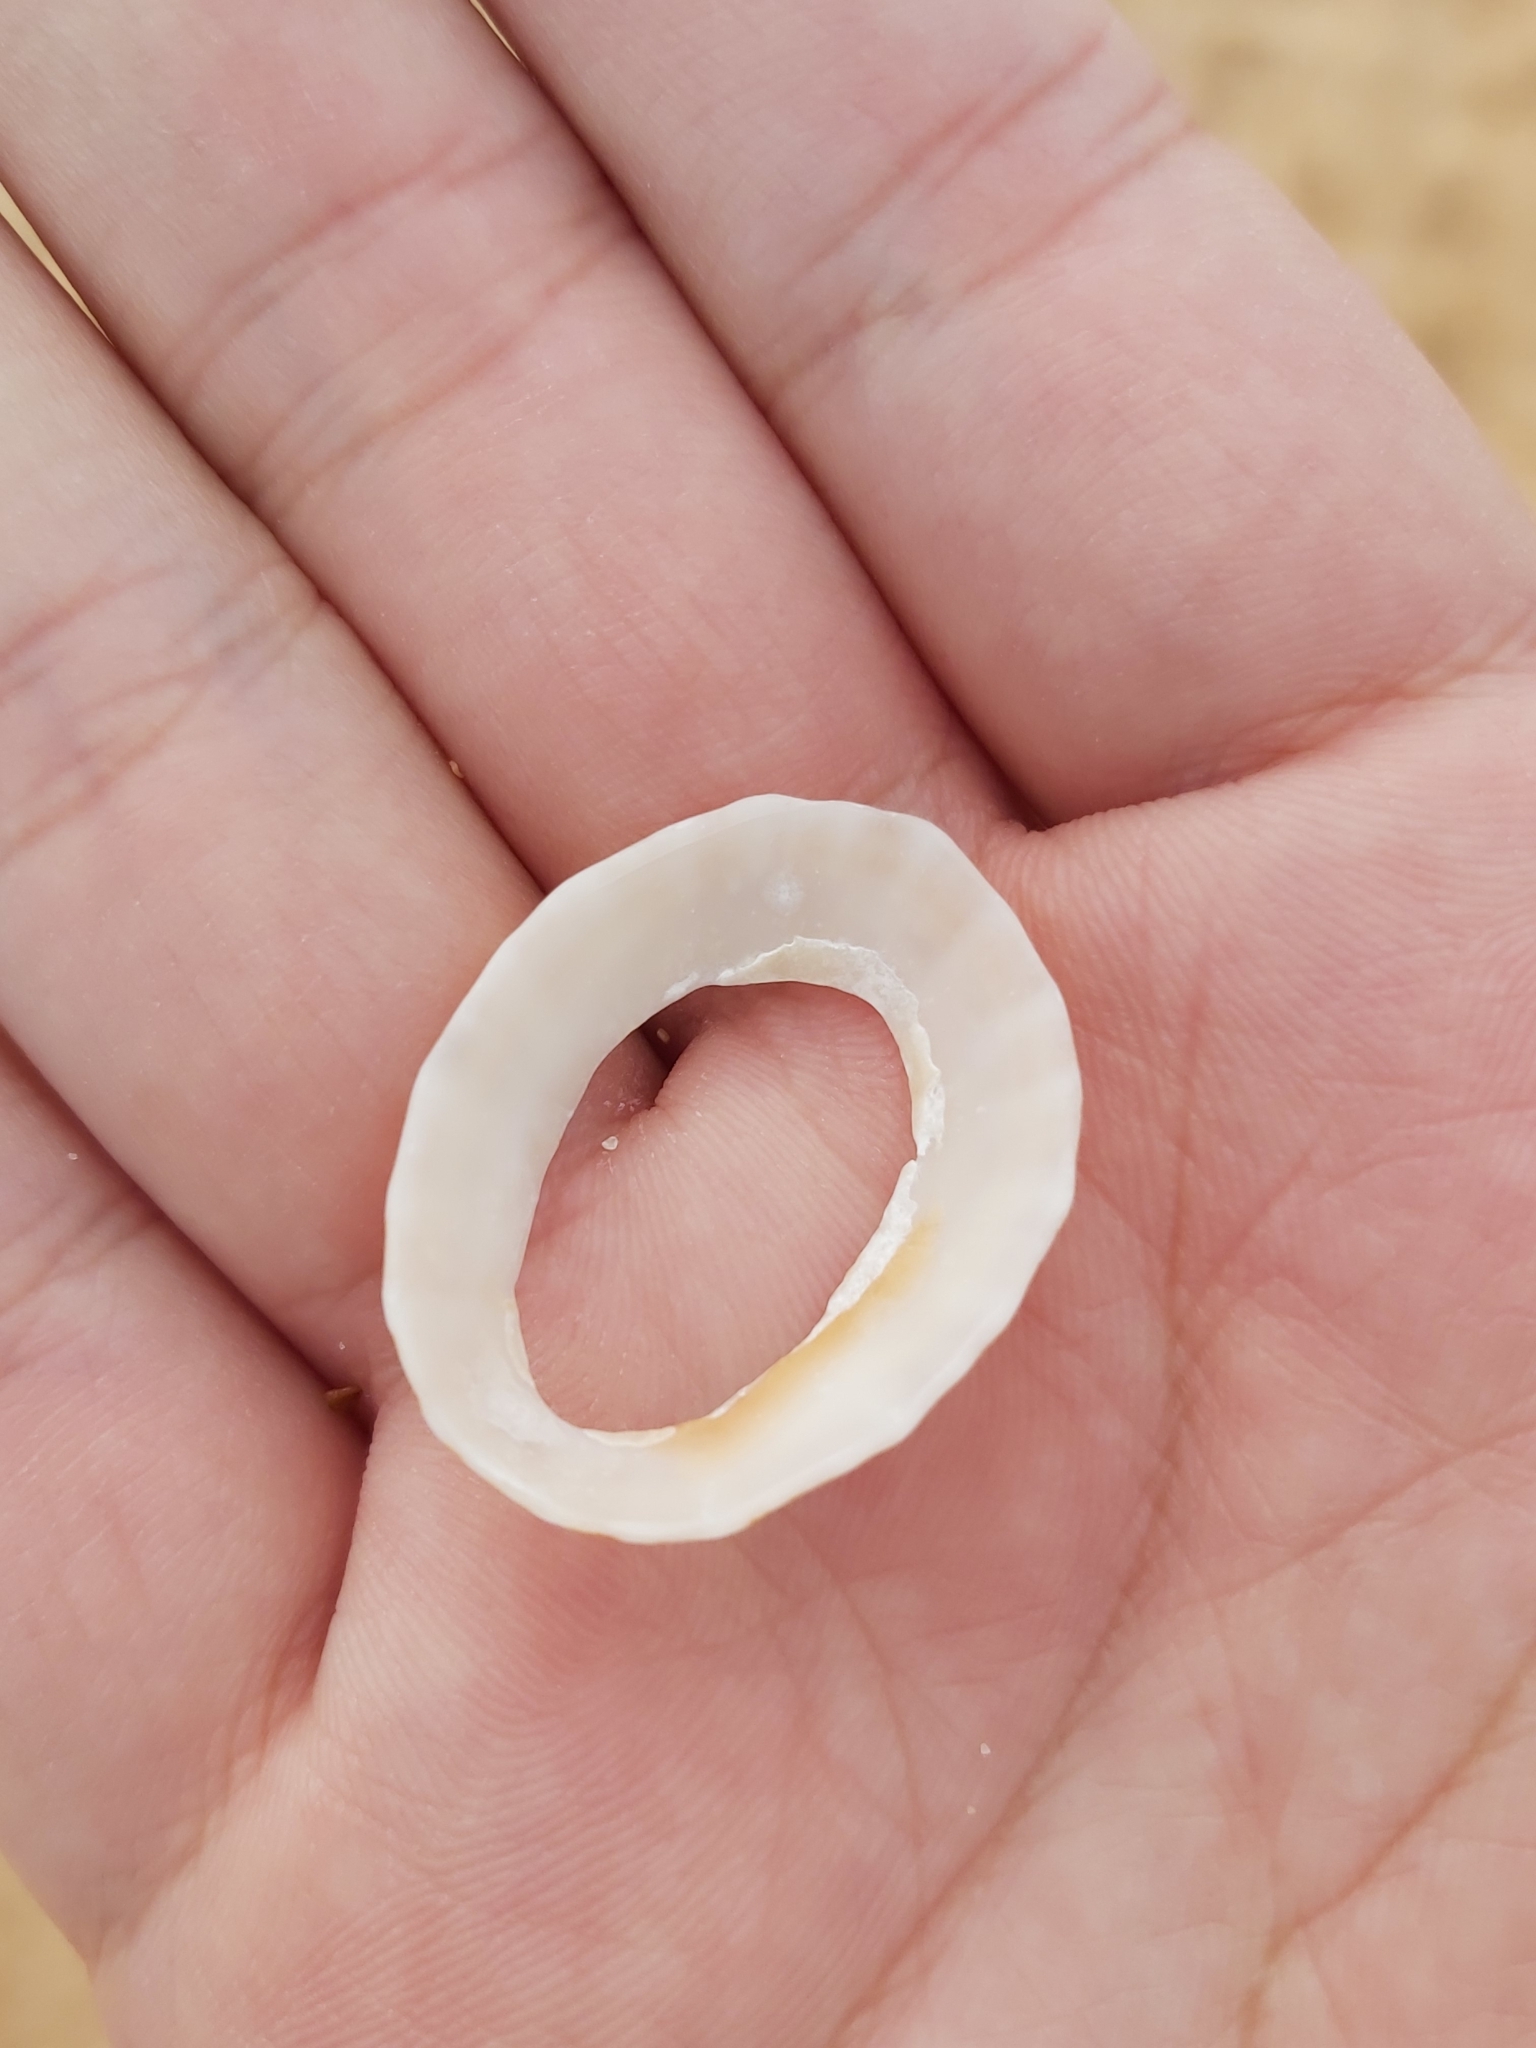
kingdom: Animalia
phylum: Mollusca
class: Gastropoda
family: Patellidae
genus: Scutellastra
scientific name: Scutellastra peronii
